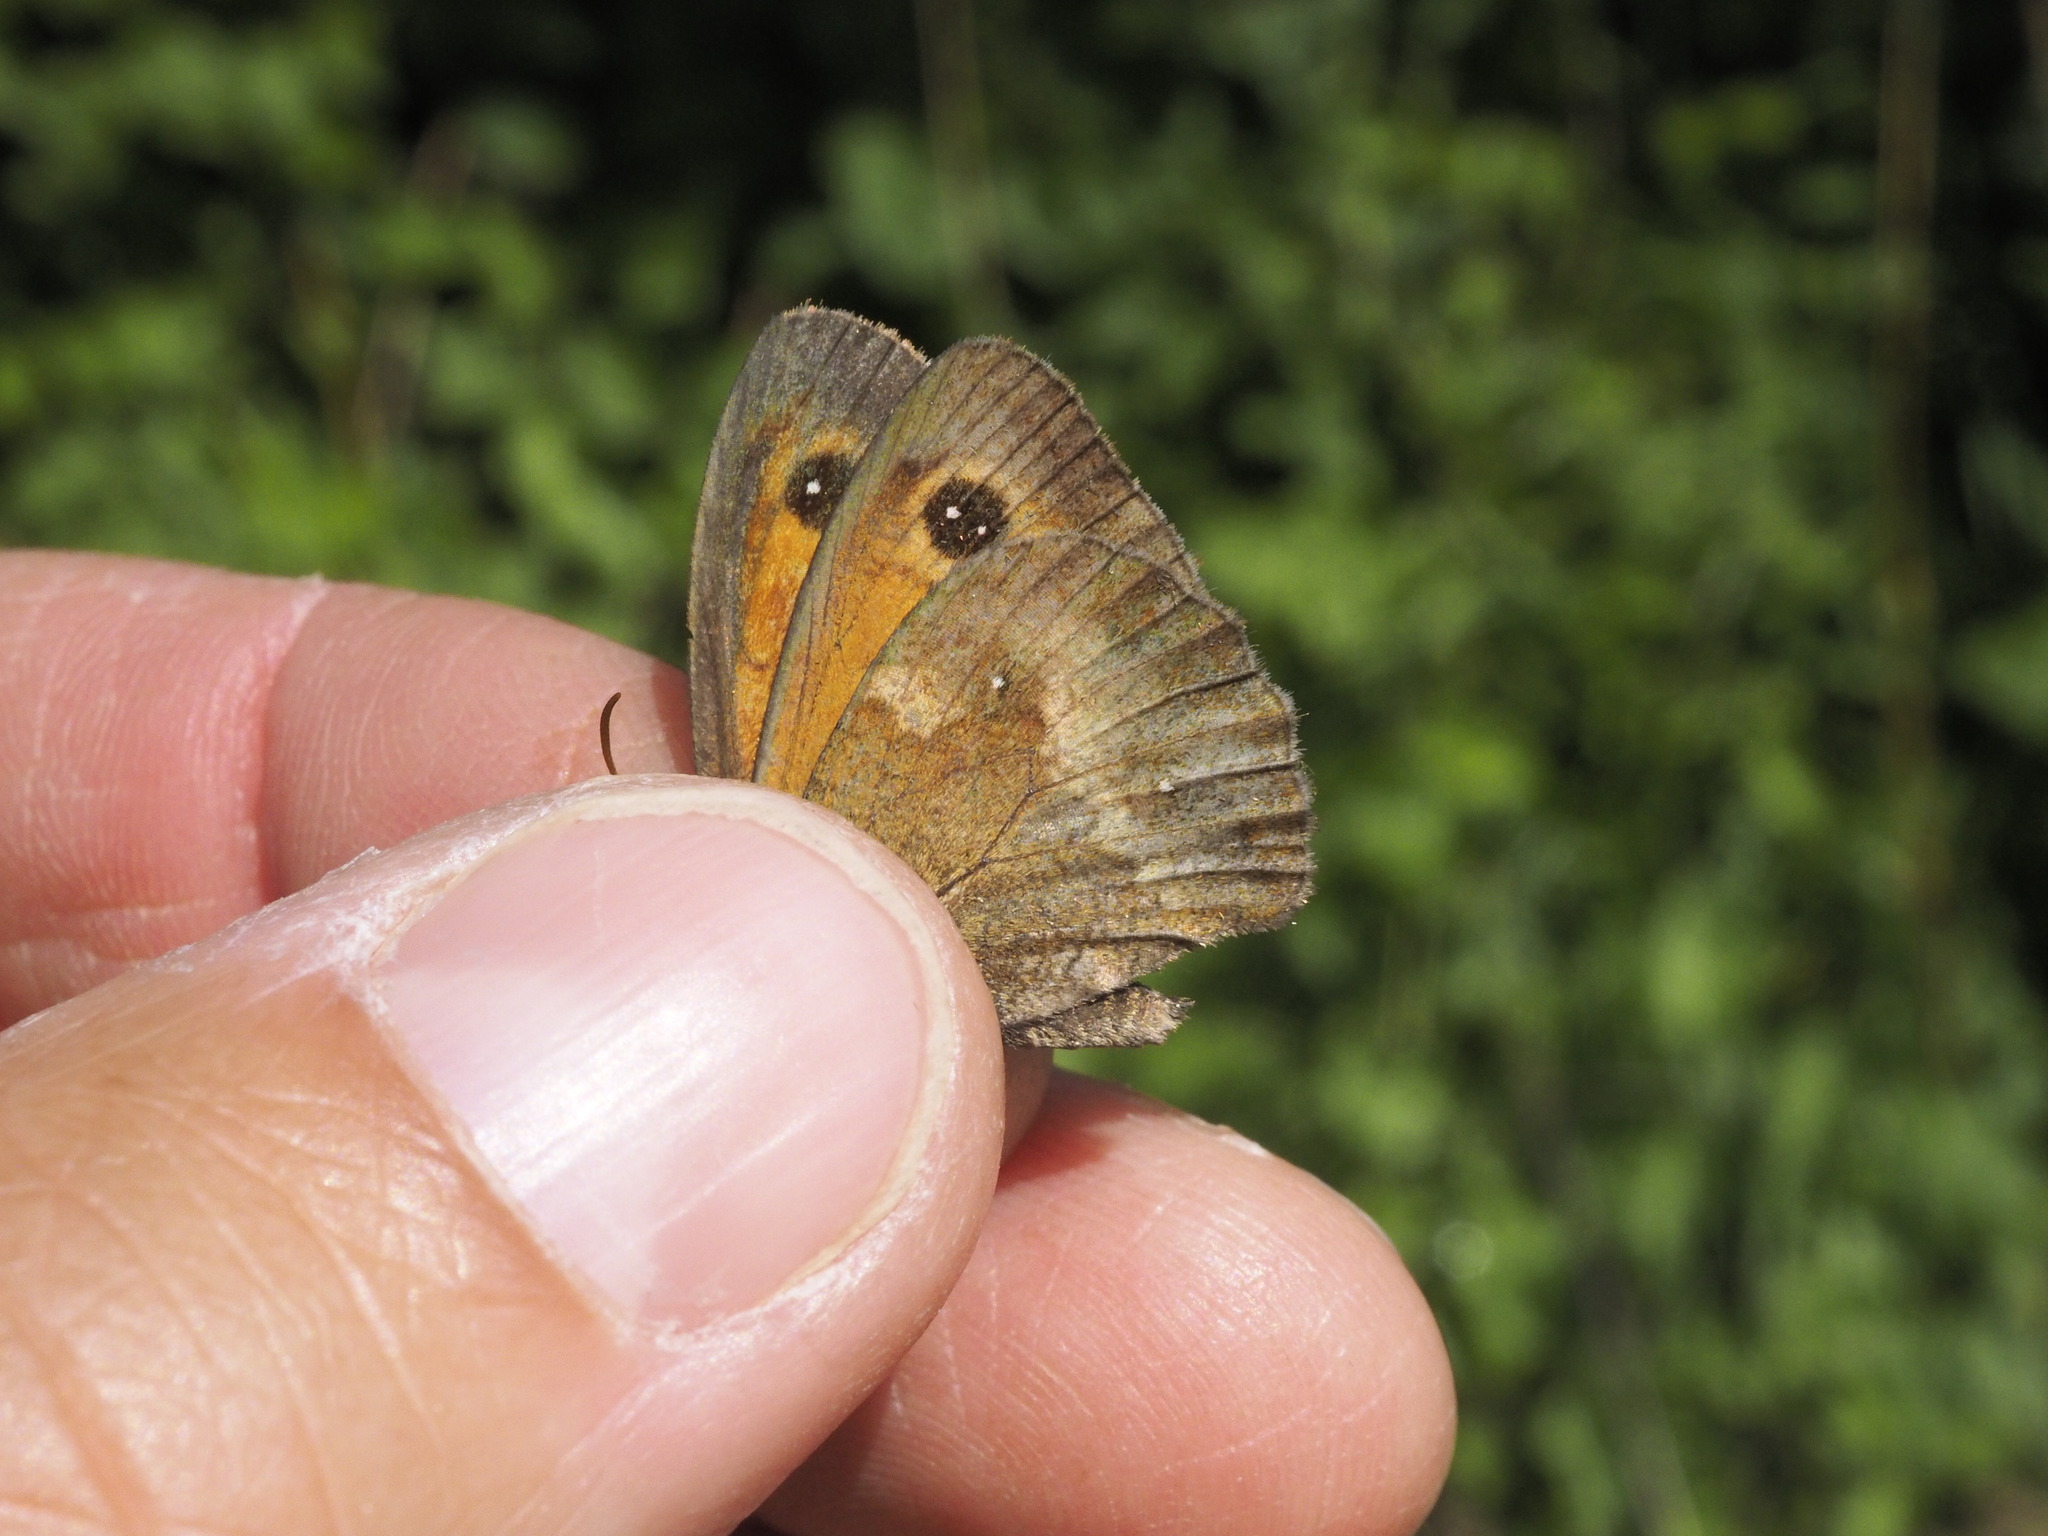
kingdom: Animalia
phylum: Arthropoda
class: Insecta
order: Lepidoptera
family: Nymphalidae
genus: Pyronia
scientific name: Pyronia tithonus
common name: Gatekeeper
